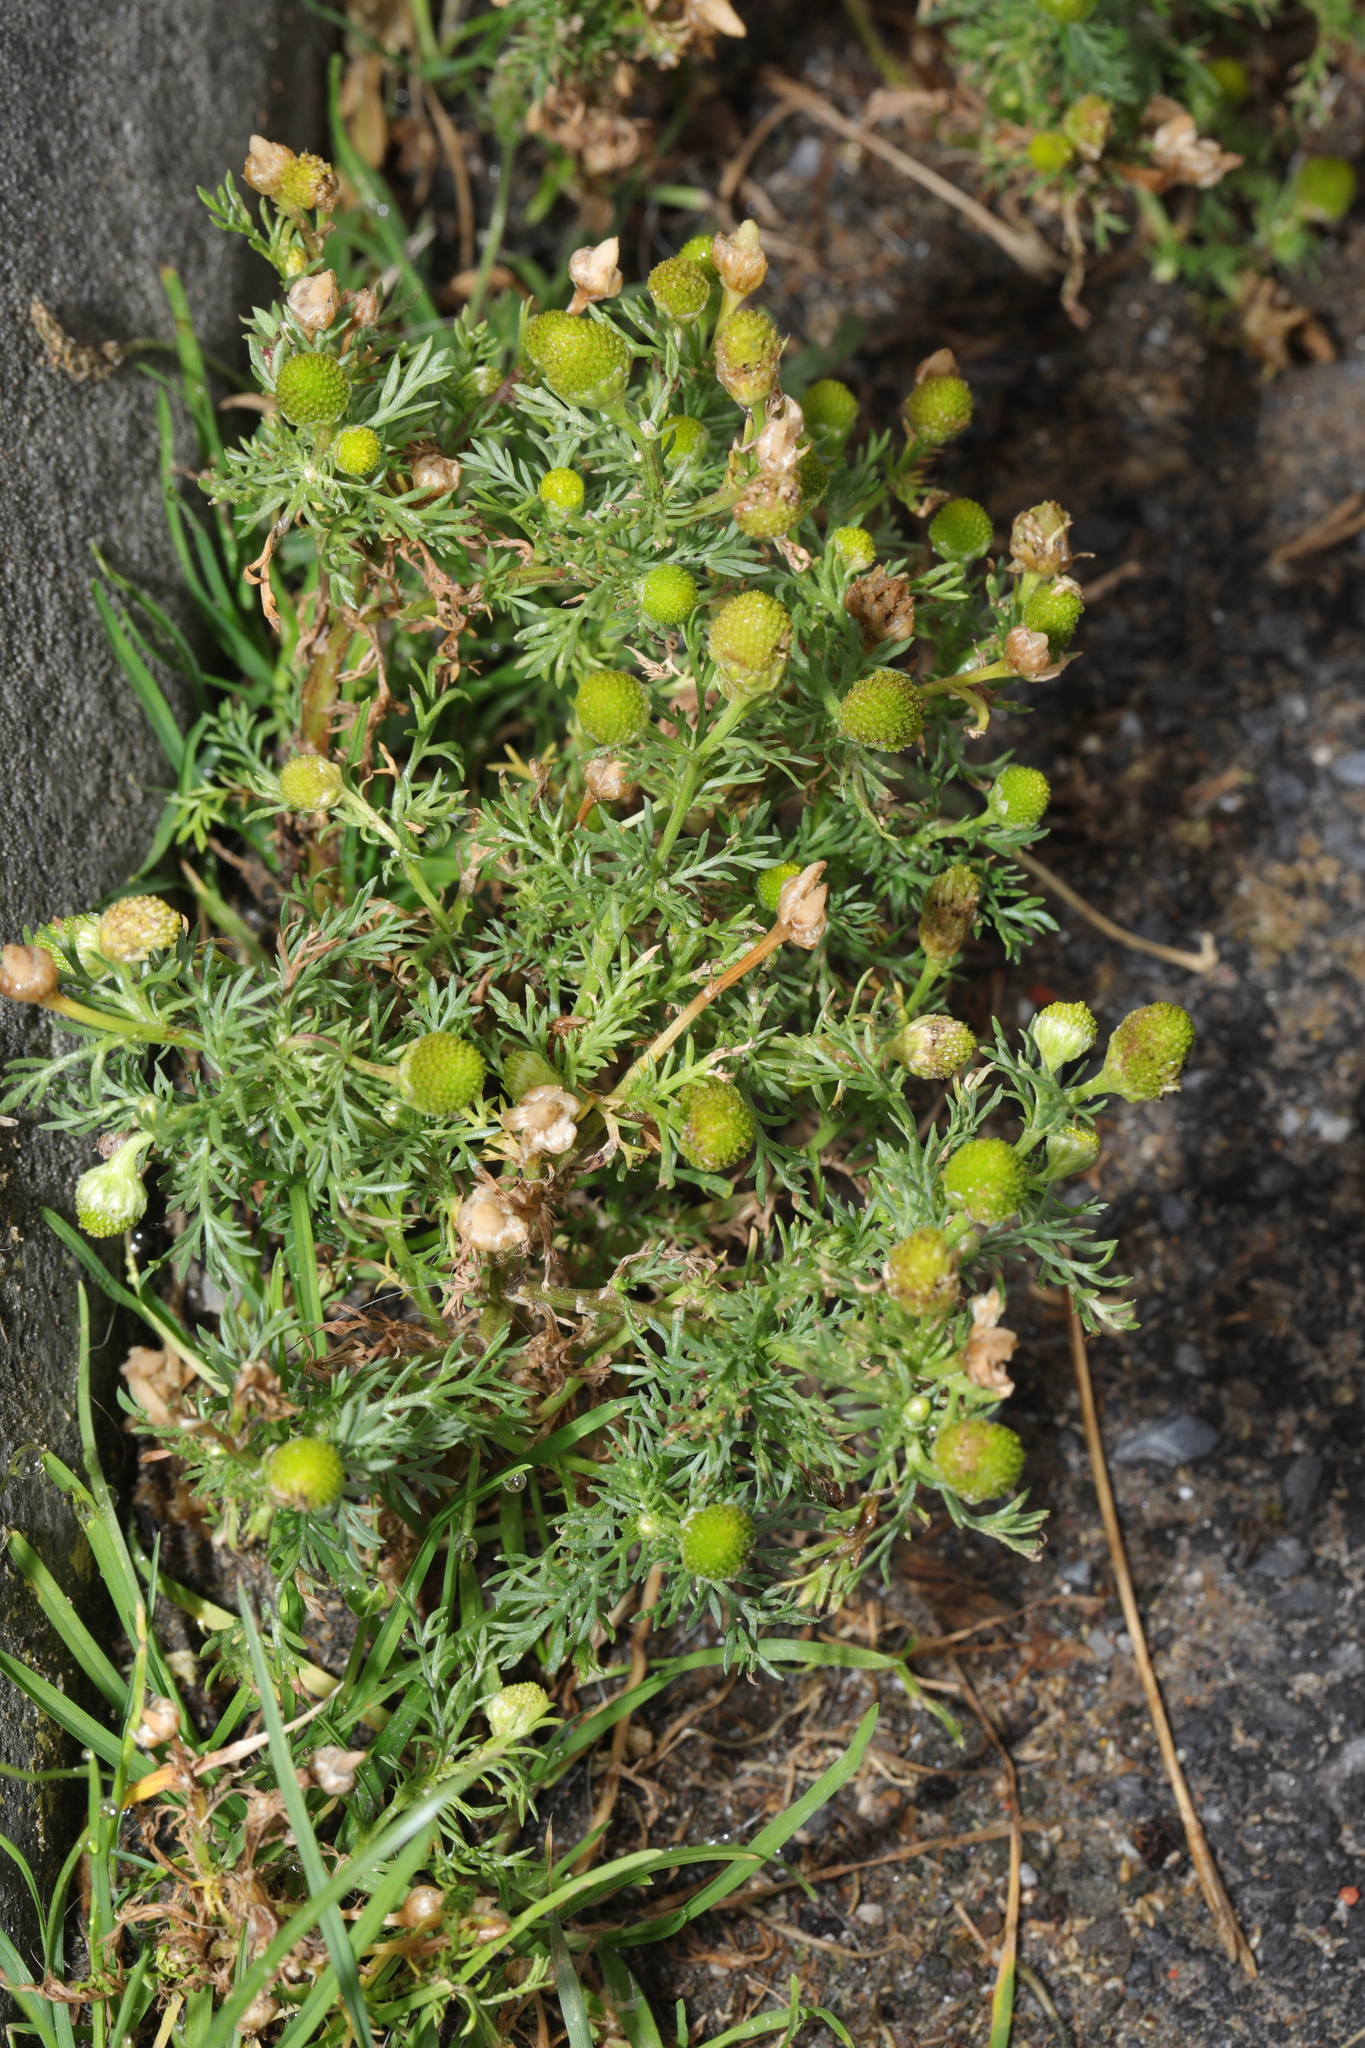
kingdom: Plantae
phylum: Tracheophyta
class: Magnoliopsida
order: Asterales
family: Asteraceae
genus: Matricaria
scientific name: Matricaria discoidea
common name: Disc mayweed
